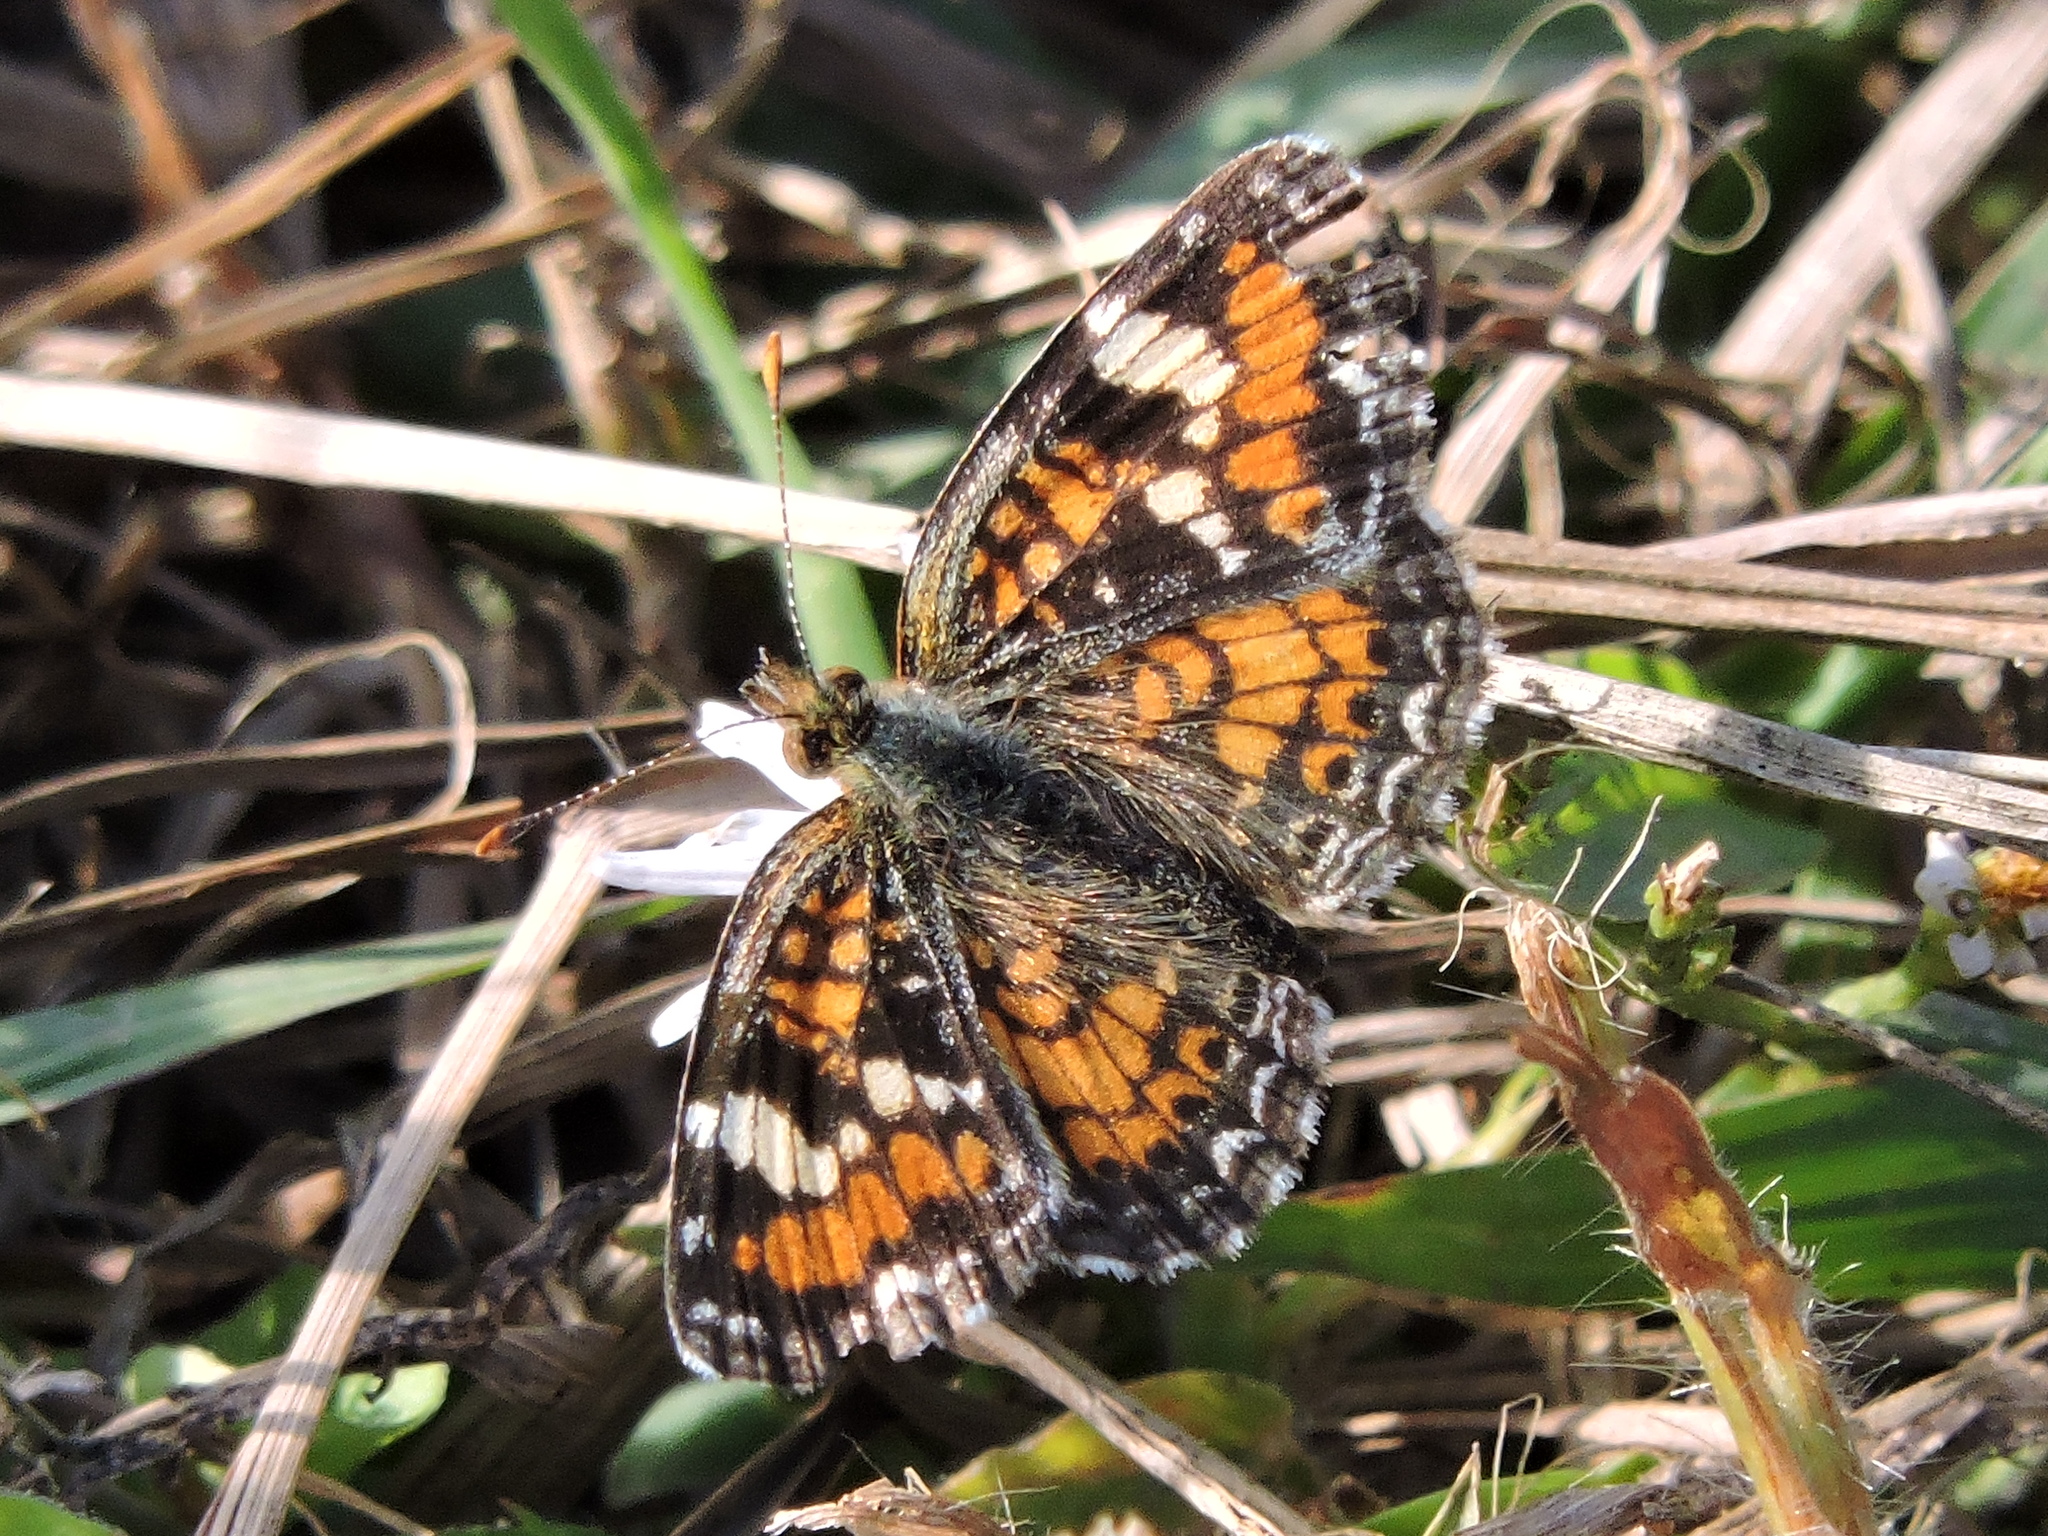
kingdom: Animalia
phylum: Arthropoda
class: Insecta
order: Lepidoptera
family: Nymphalidae
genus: Phyciodes
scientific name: Phyciodes phaon
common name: Phaon crescent
